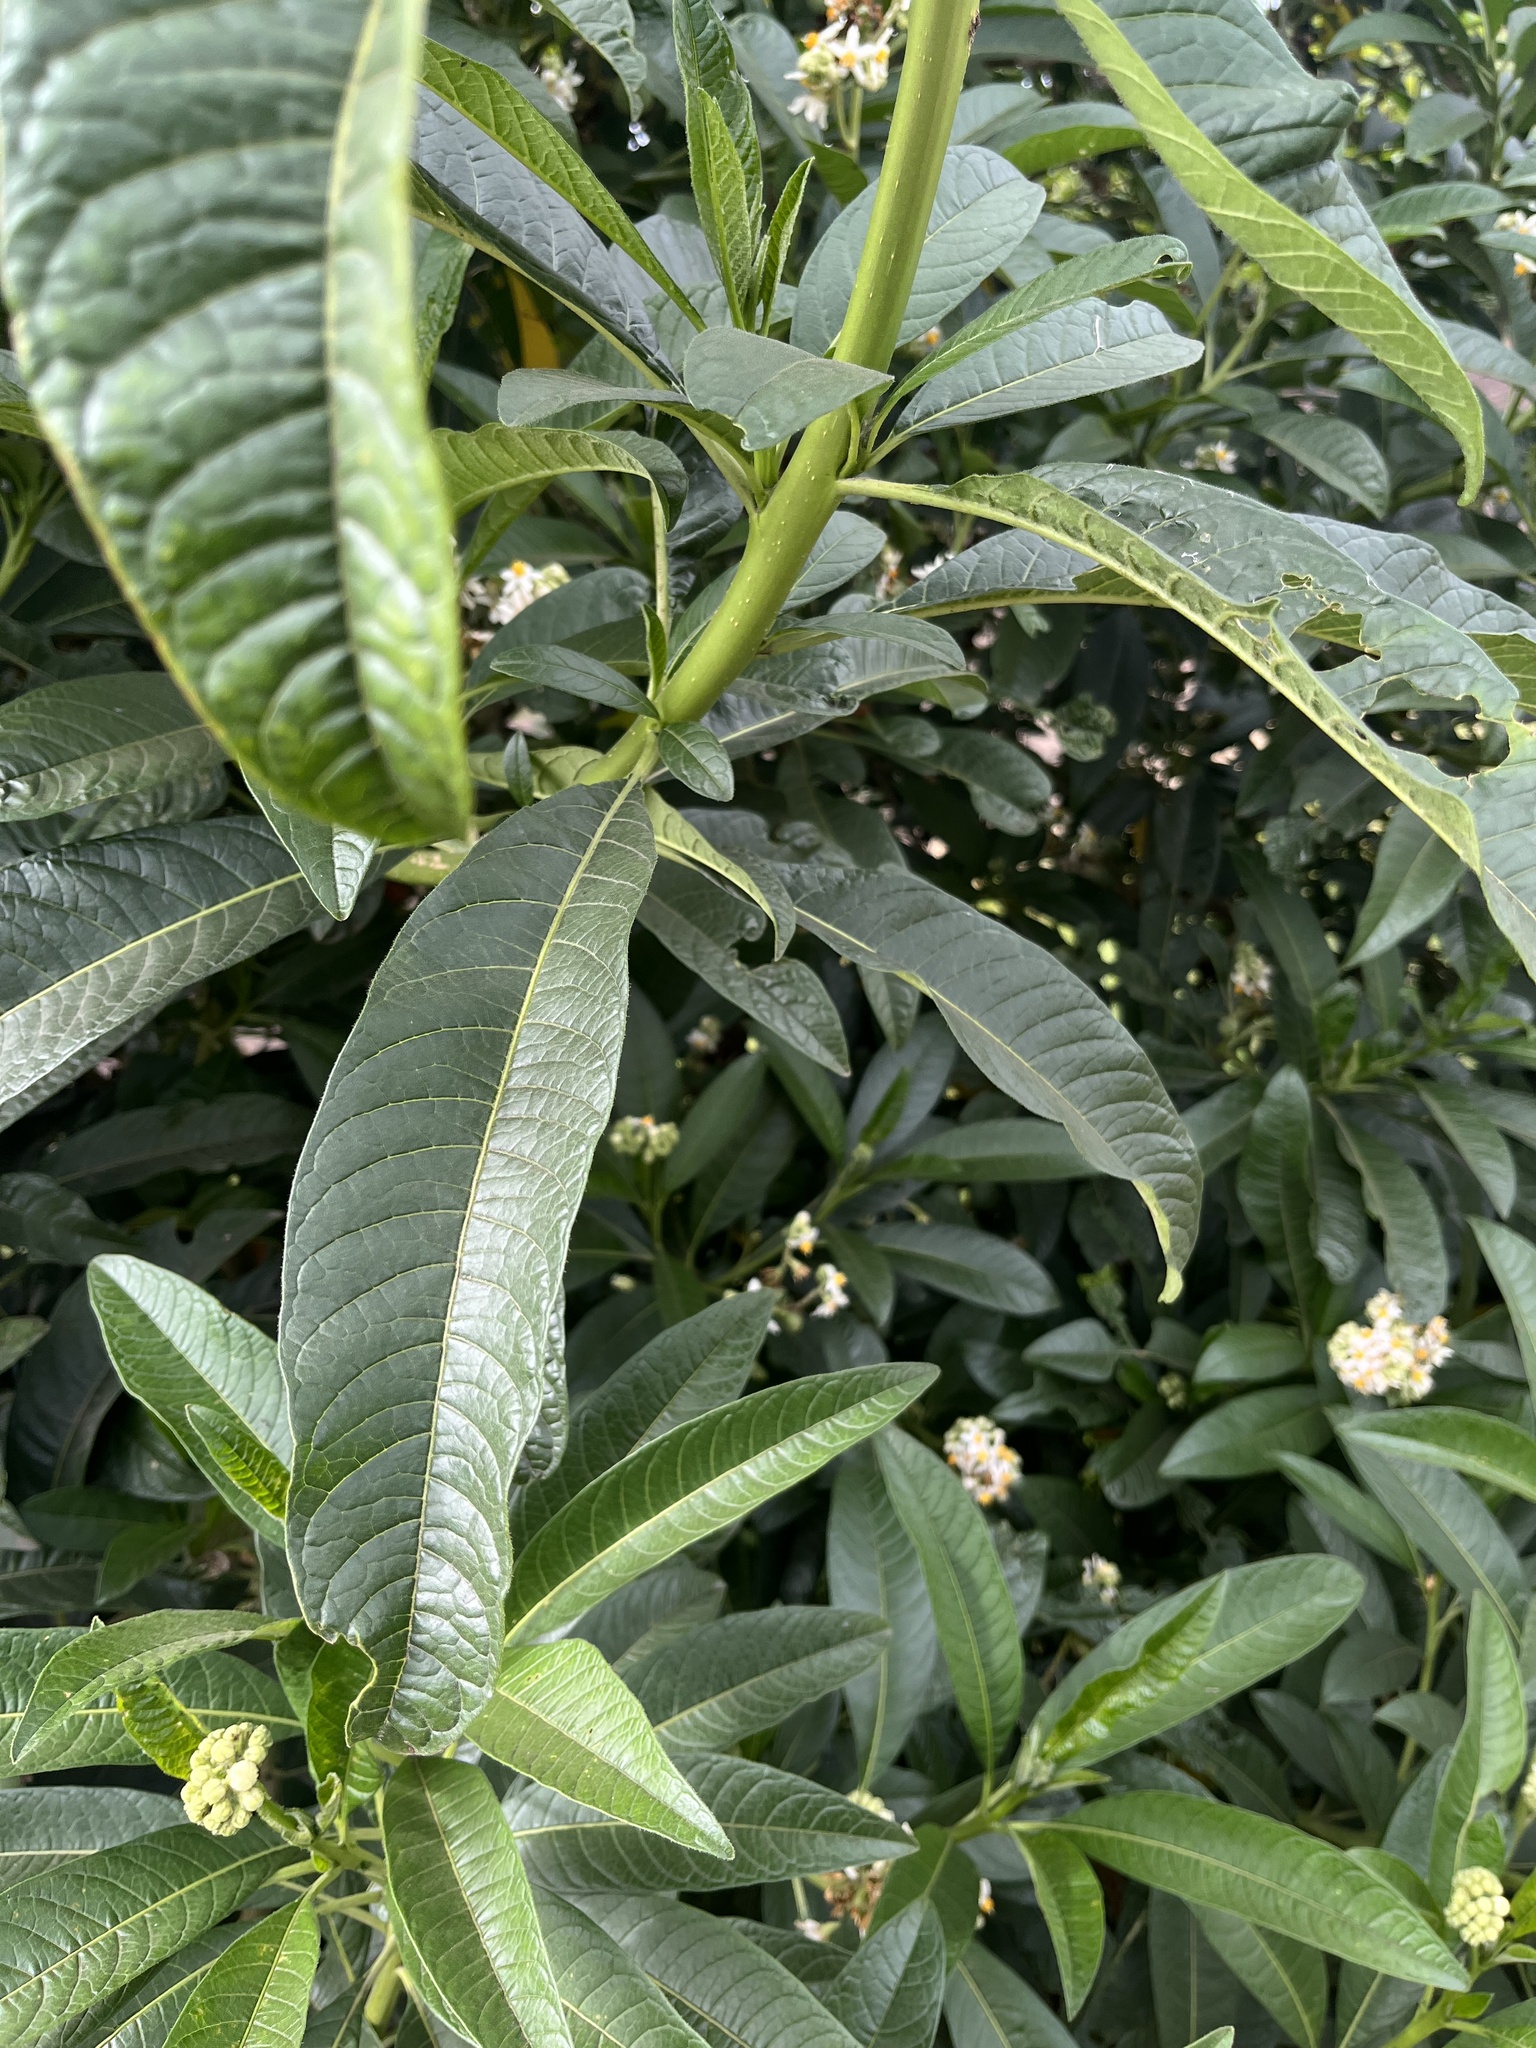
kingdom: Plantae
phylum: Tracheophyta
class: Magnoliopsida
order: Solanales
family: Solanaceae
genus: Solanum
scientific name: Solanum oblongifolium
